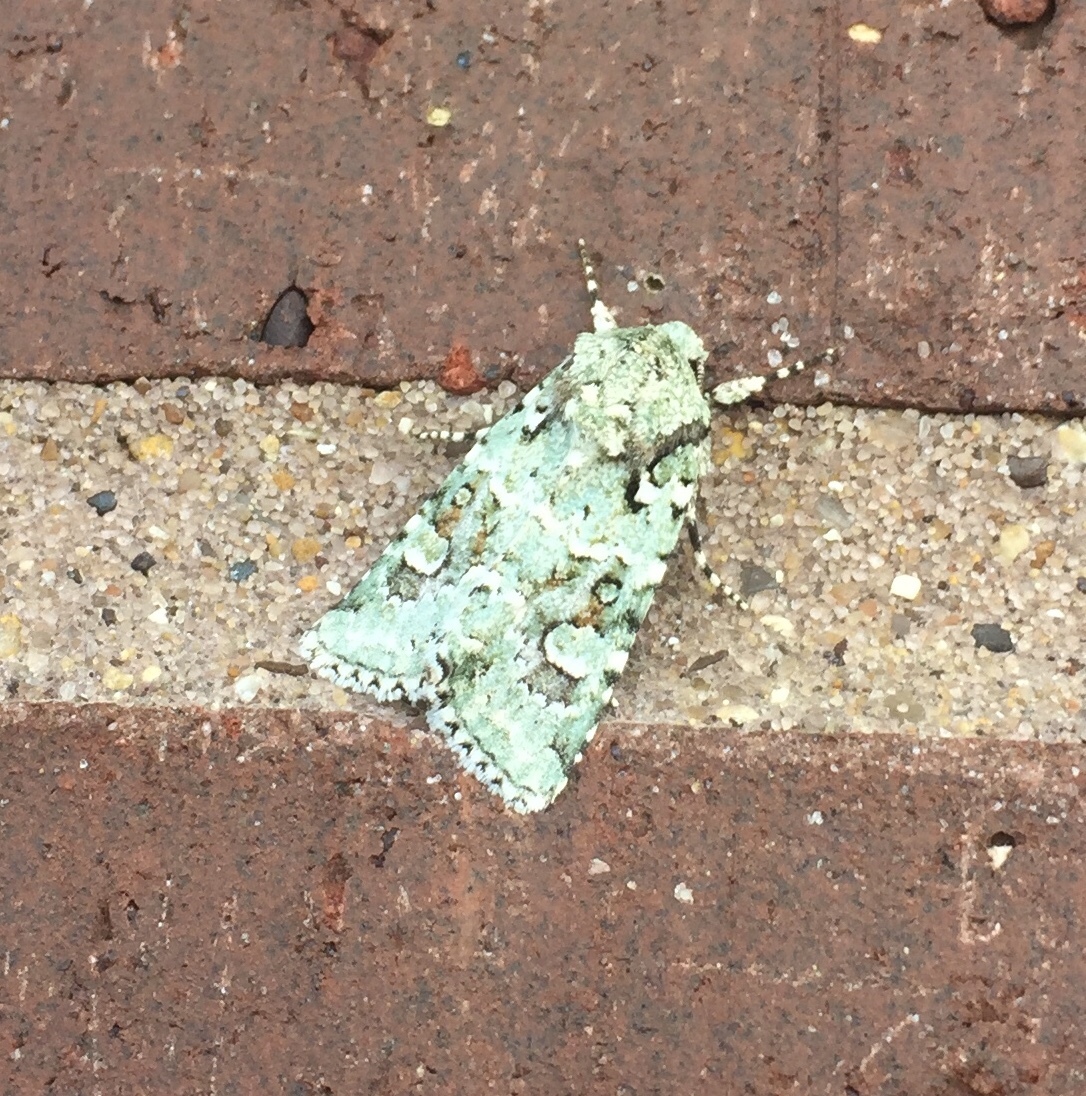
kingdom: Animalia
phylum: Arthropoda
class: Insecta
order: Lepidoptera
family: Noctuidae
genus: Lacinipolia
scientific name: Lacinipolia laudabilis
